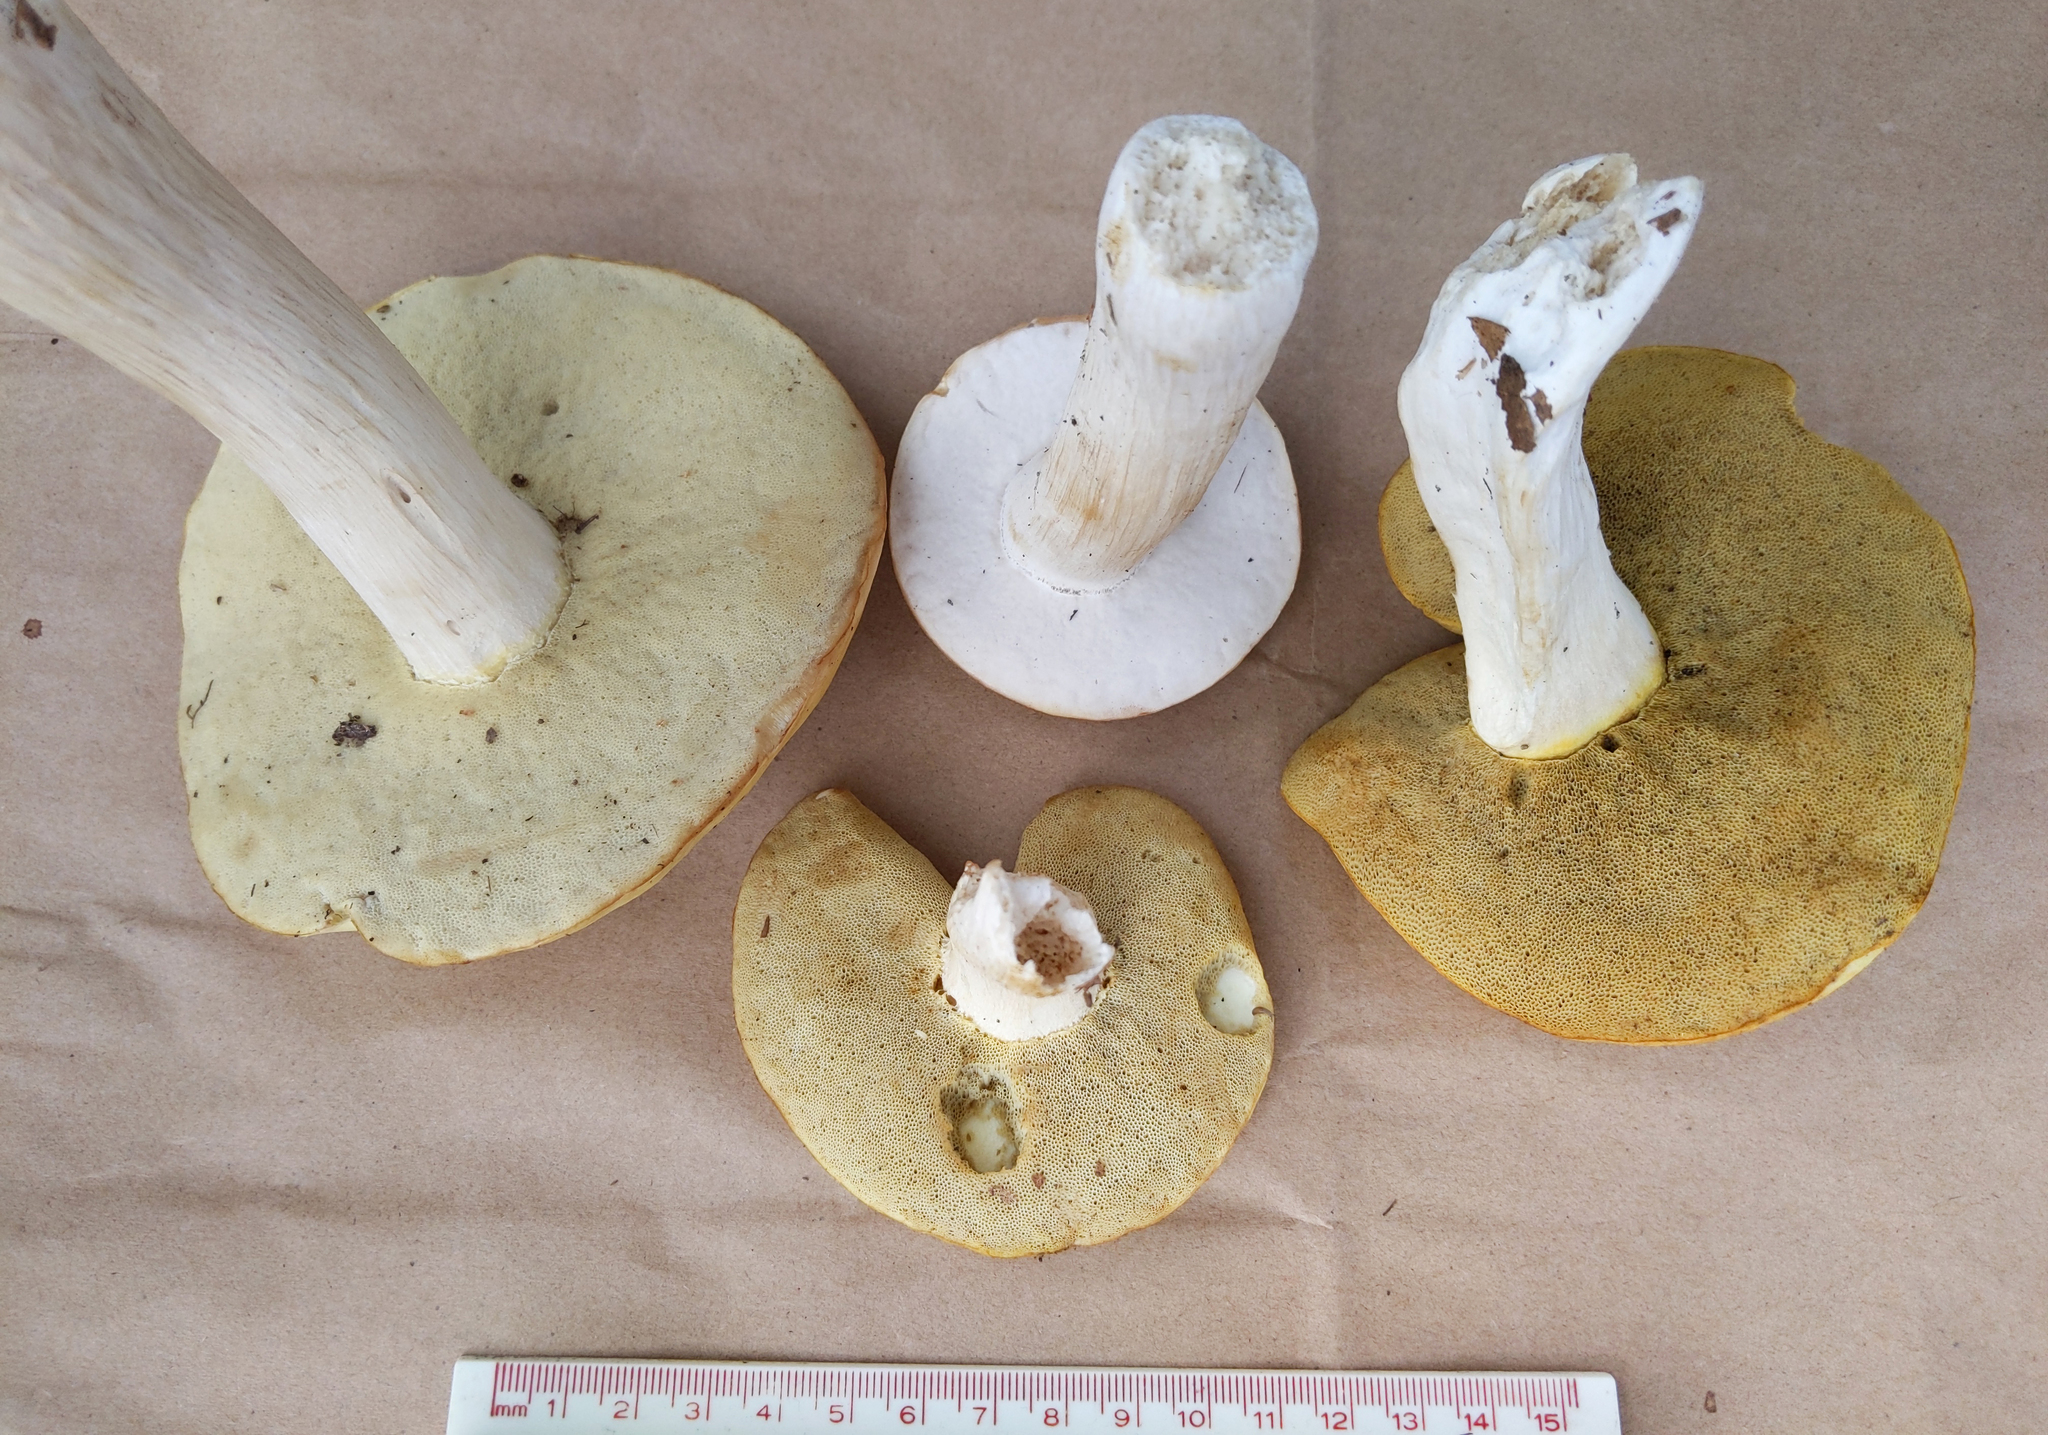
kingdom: Fungi
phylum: Basidiomycota
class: Agaricomycetes
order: Boletales
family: Boletaceae
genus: Boletus
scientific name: Boletus nobilis
